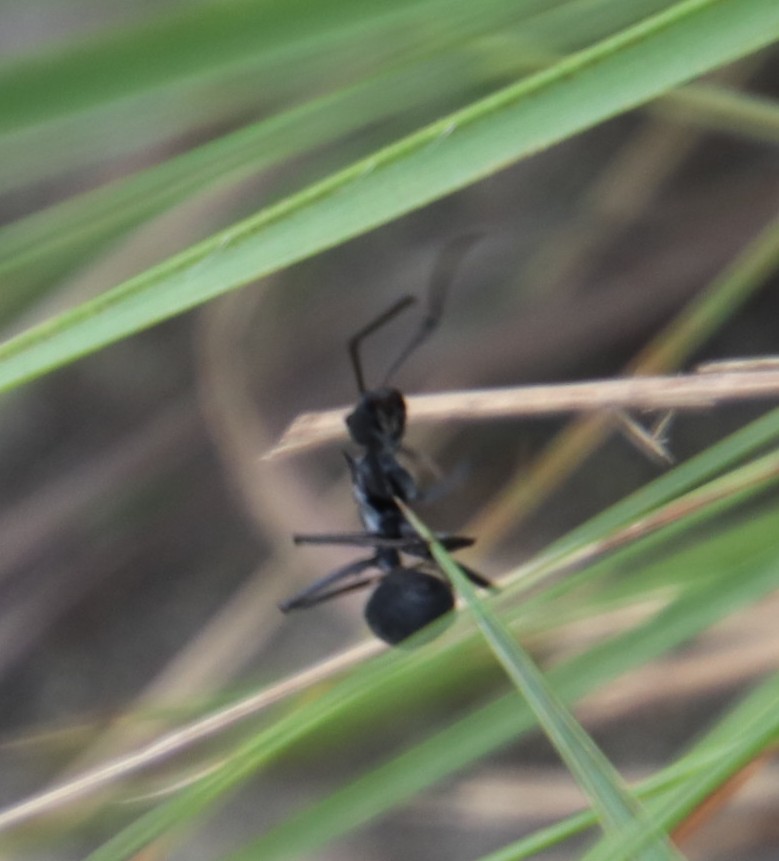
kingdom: Animalia
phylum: Arthropoda
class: Insecta
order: Hymenoptera
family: Formicidae
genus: Polyrhachis
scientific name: Polyrhachis schistacea
